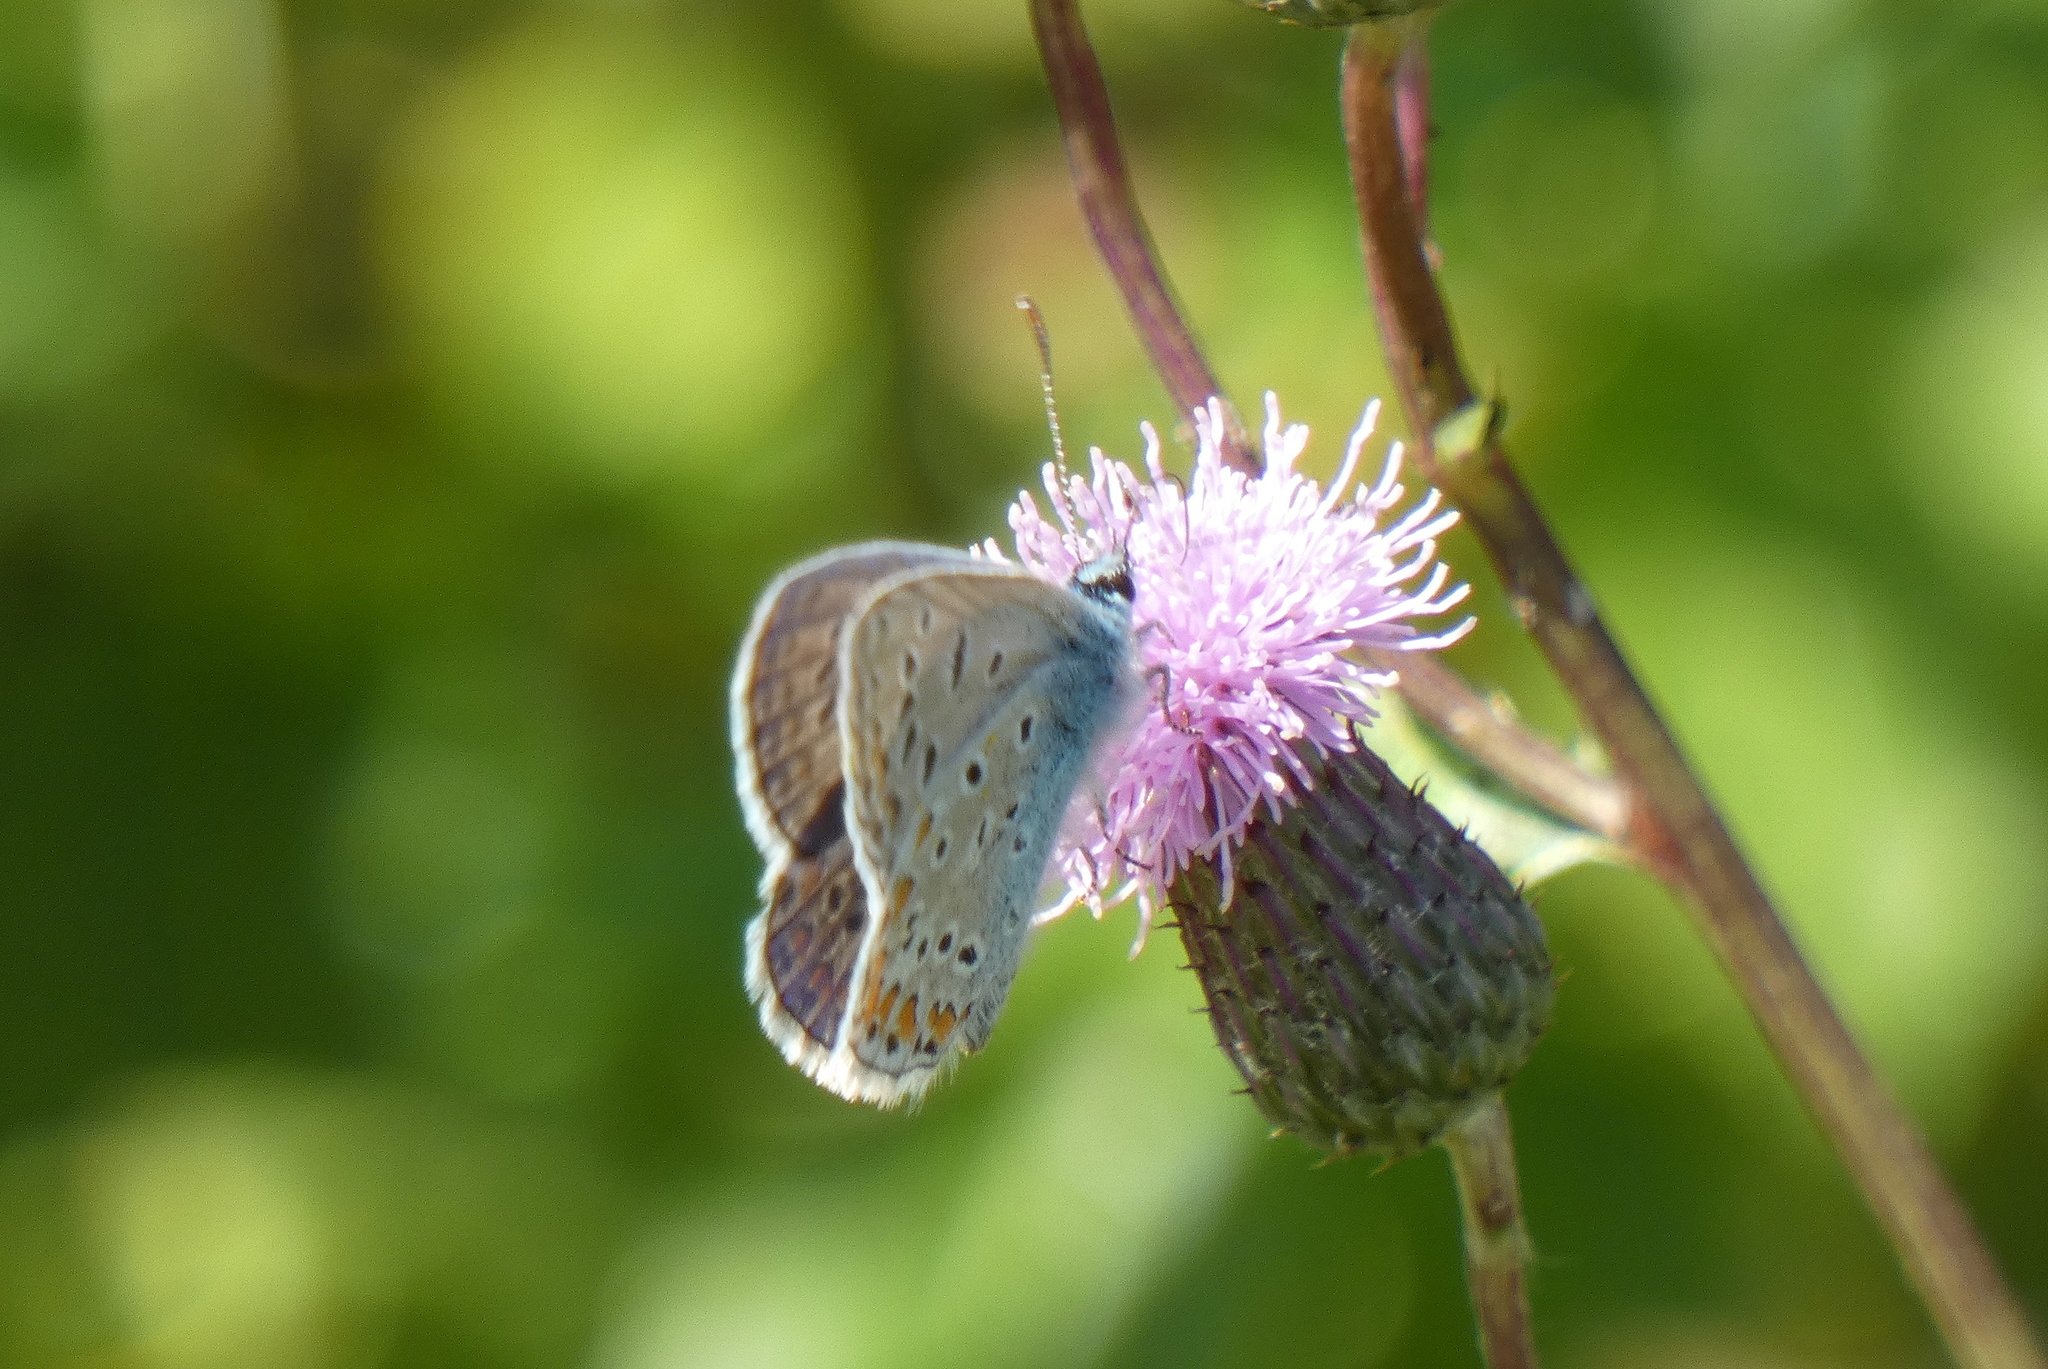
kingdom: Animalia
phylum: Arthropoda
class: Insecta
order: Lepidoptera
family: Lycaenidae
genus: Polyommatus
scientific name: Polyommatus icarus
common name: Common blue
